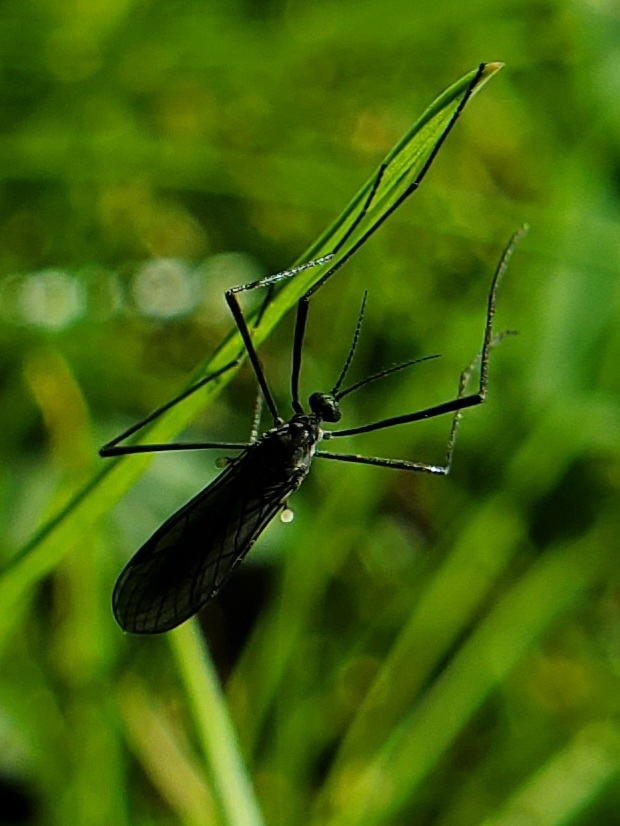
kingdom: Animalia
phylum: Arthropoda
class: Insecta
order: Diptera
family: Limoniidae
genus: Gnophomyia
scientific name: Gnophomyia tristissima
